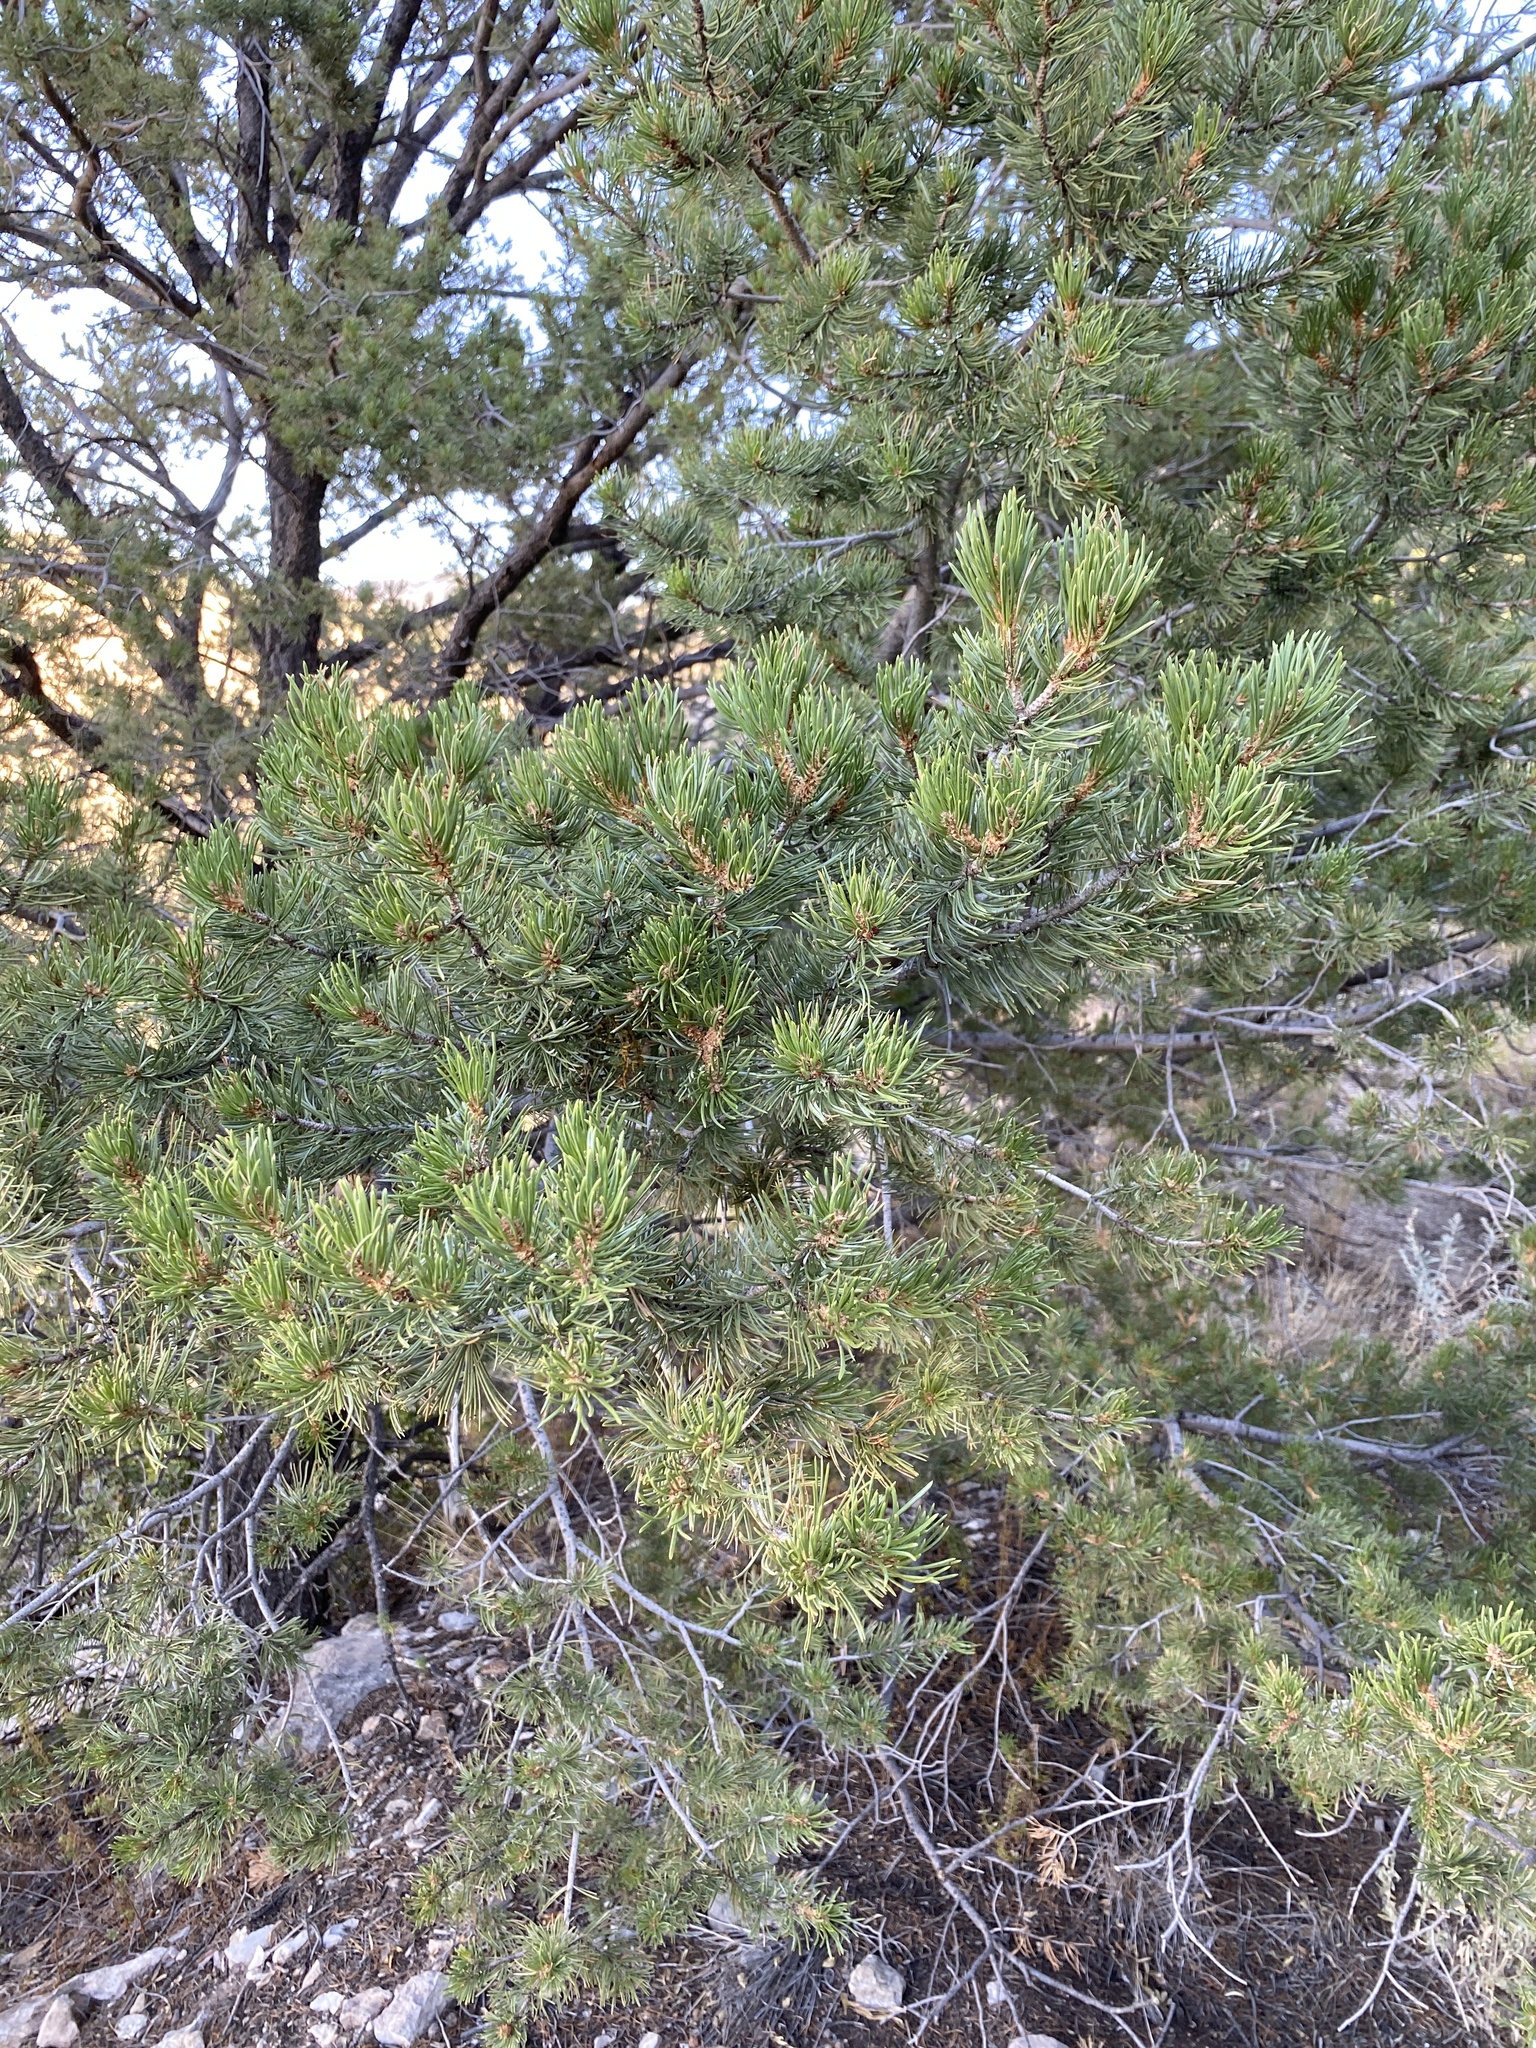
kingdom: Plantae
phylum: Tracheophyta
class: Pinopsida
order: Pinales
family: Pinaceae
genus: Pinus
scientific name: Pinus edulis
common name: Colorado pinyon
